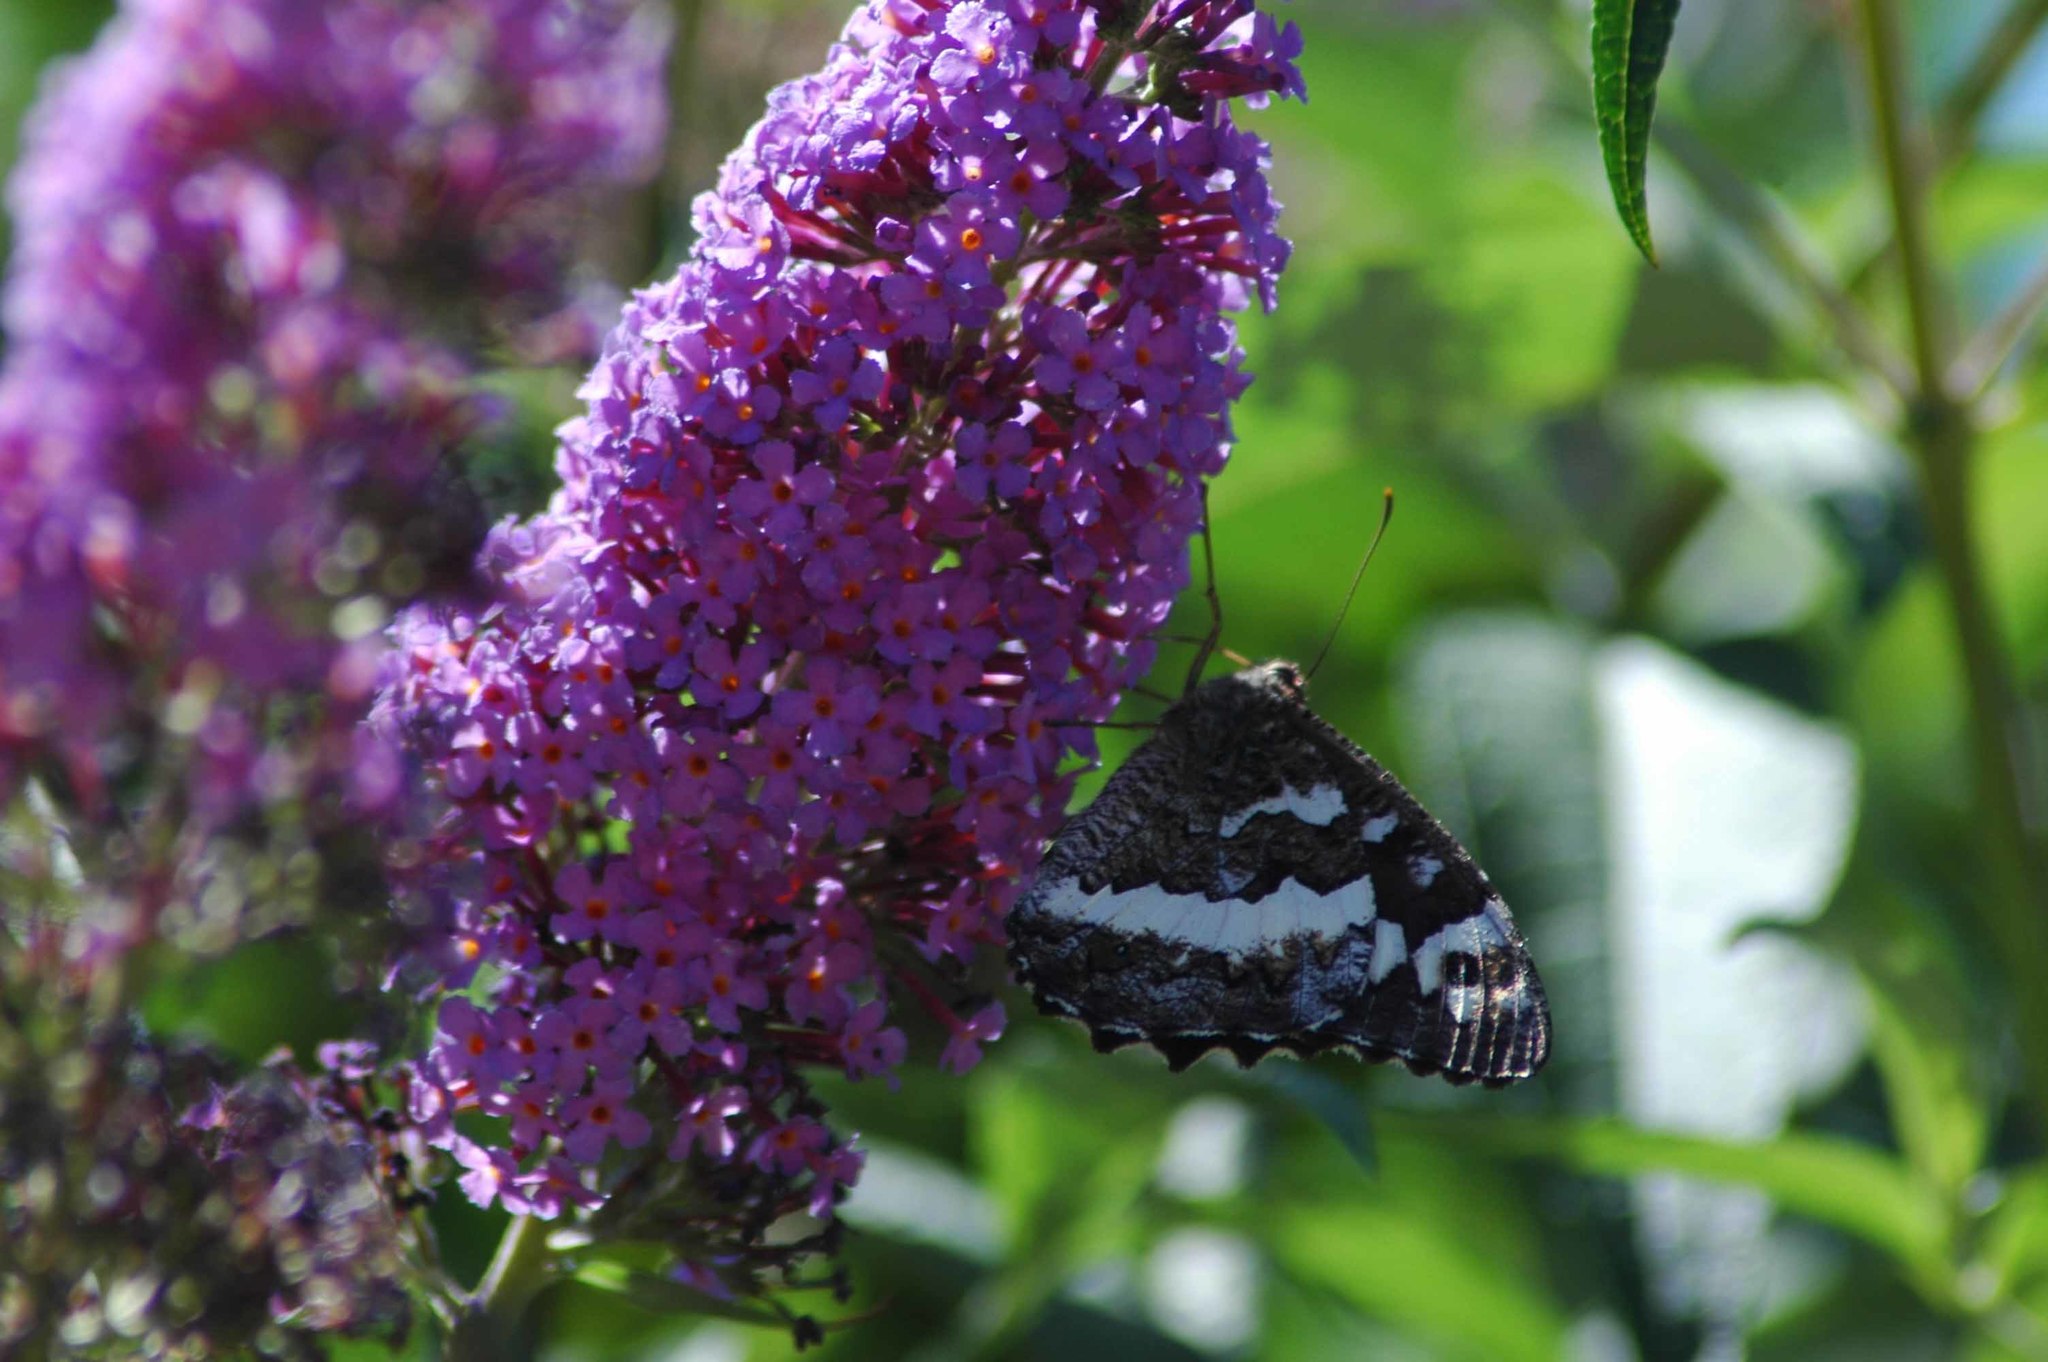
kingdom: Animalia
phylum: Arthropoda
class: Insecta
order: Lepidoptera
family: Lycaenidae
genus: Loweia
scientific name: Loweia tityrus
